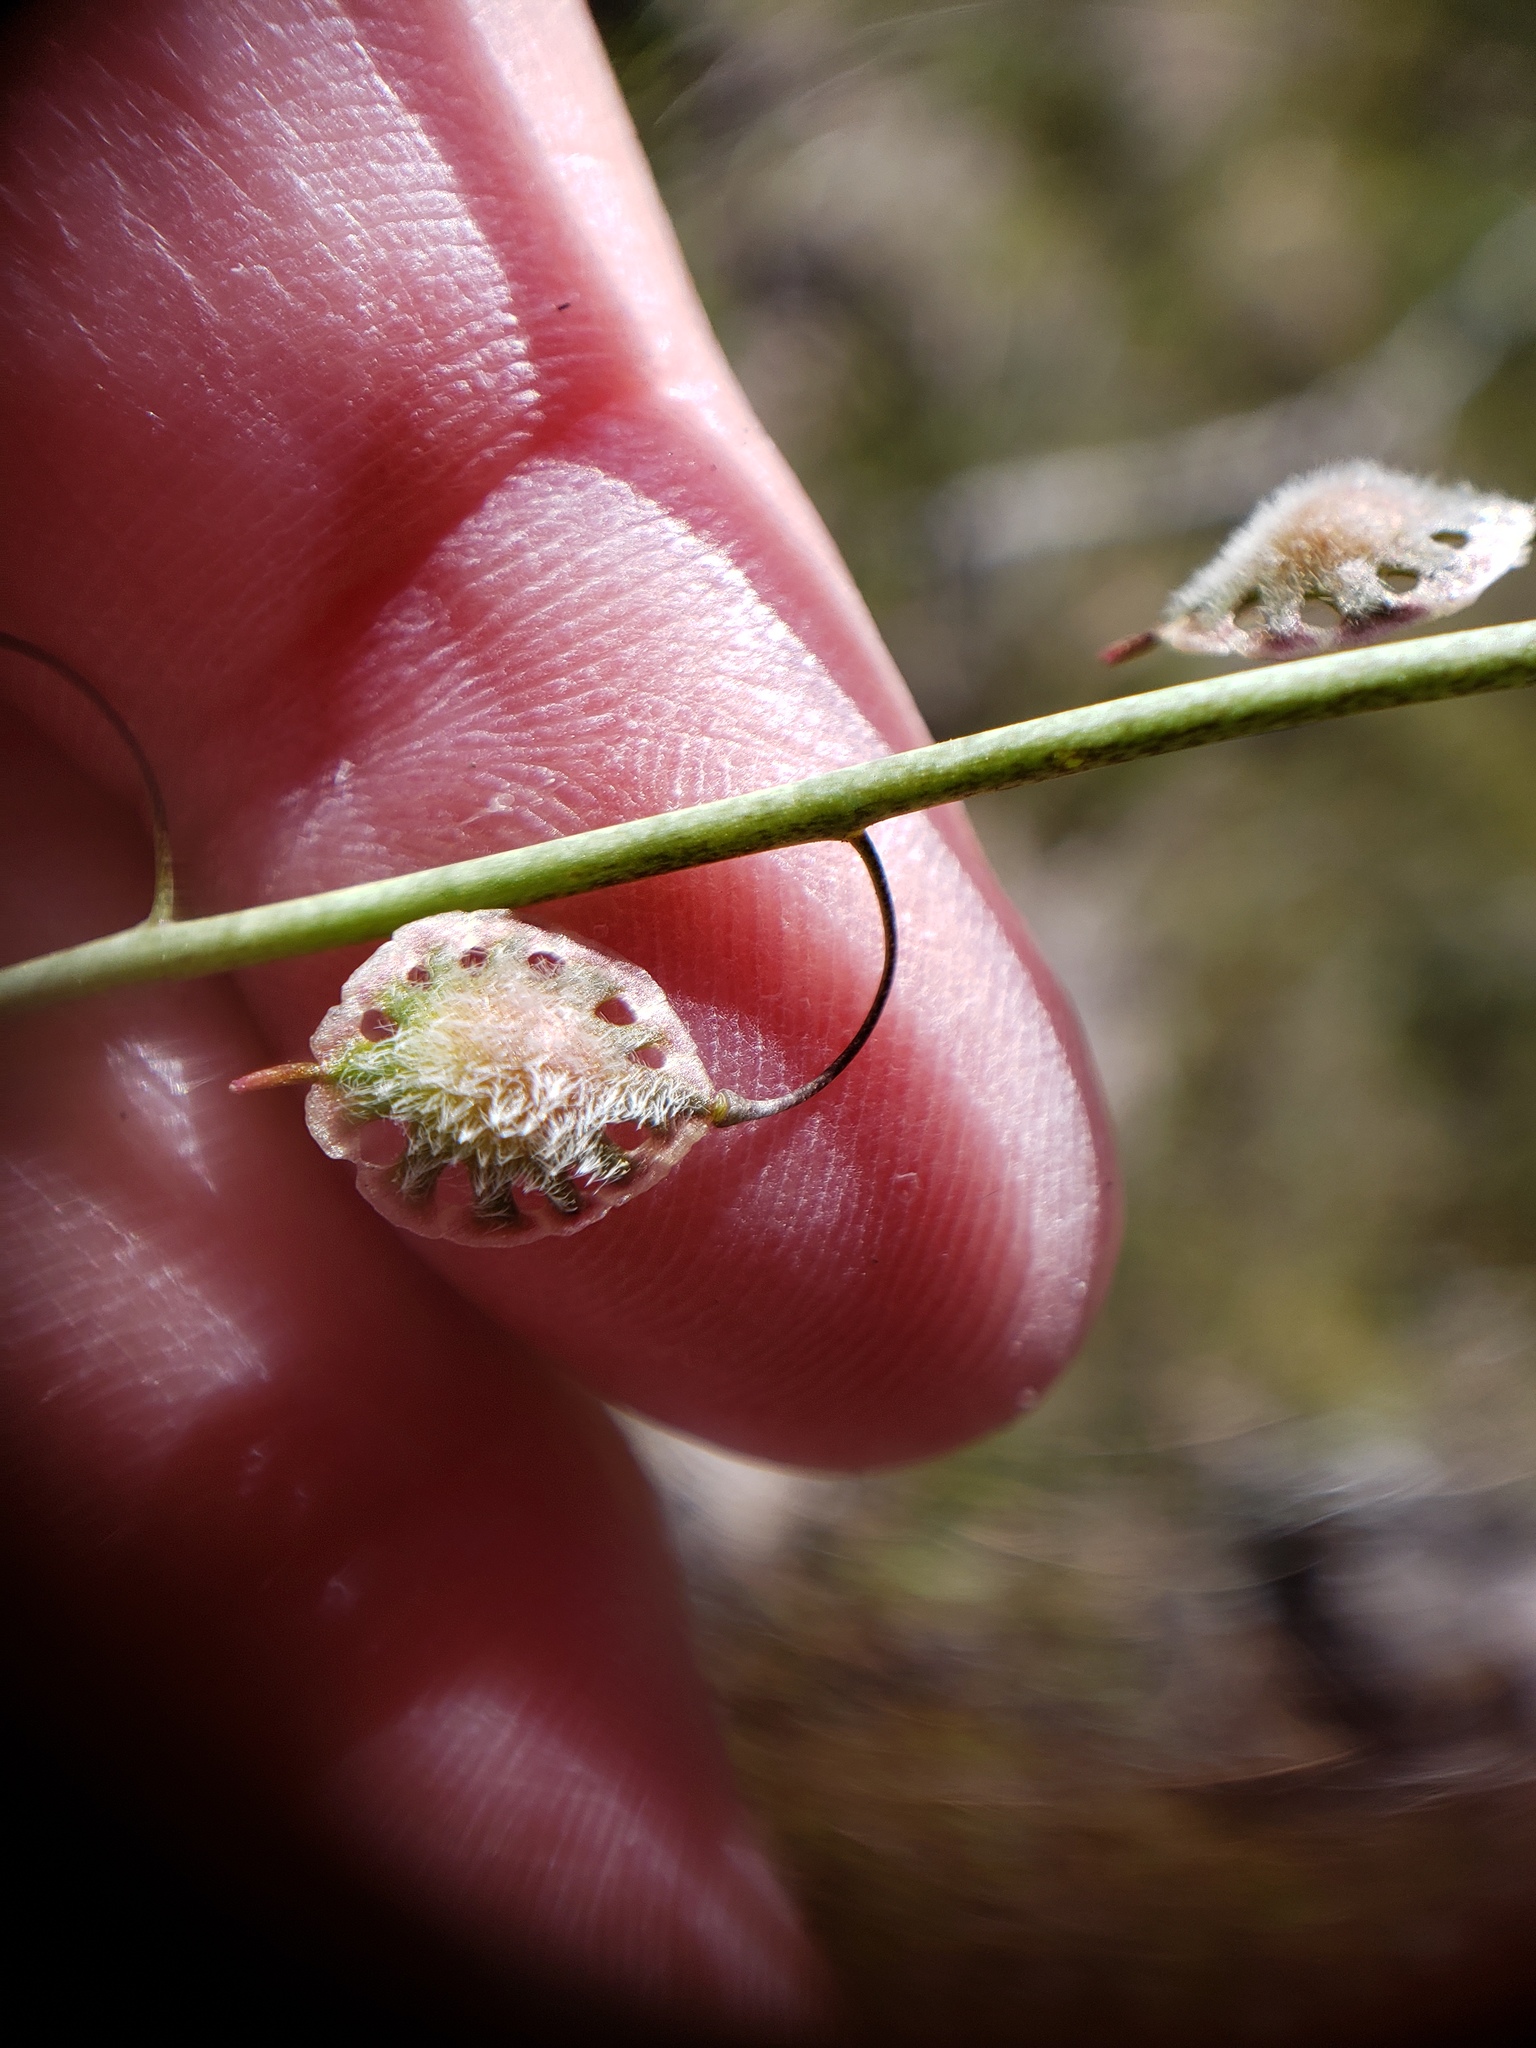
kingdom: Plantae
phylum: Tracheophyta
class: Magnoliopsida
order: Brassicales
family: Brassicaceae
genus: Thysanocarpus
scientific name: Thysanocarpus curvipes
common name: Sand fringepod
